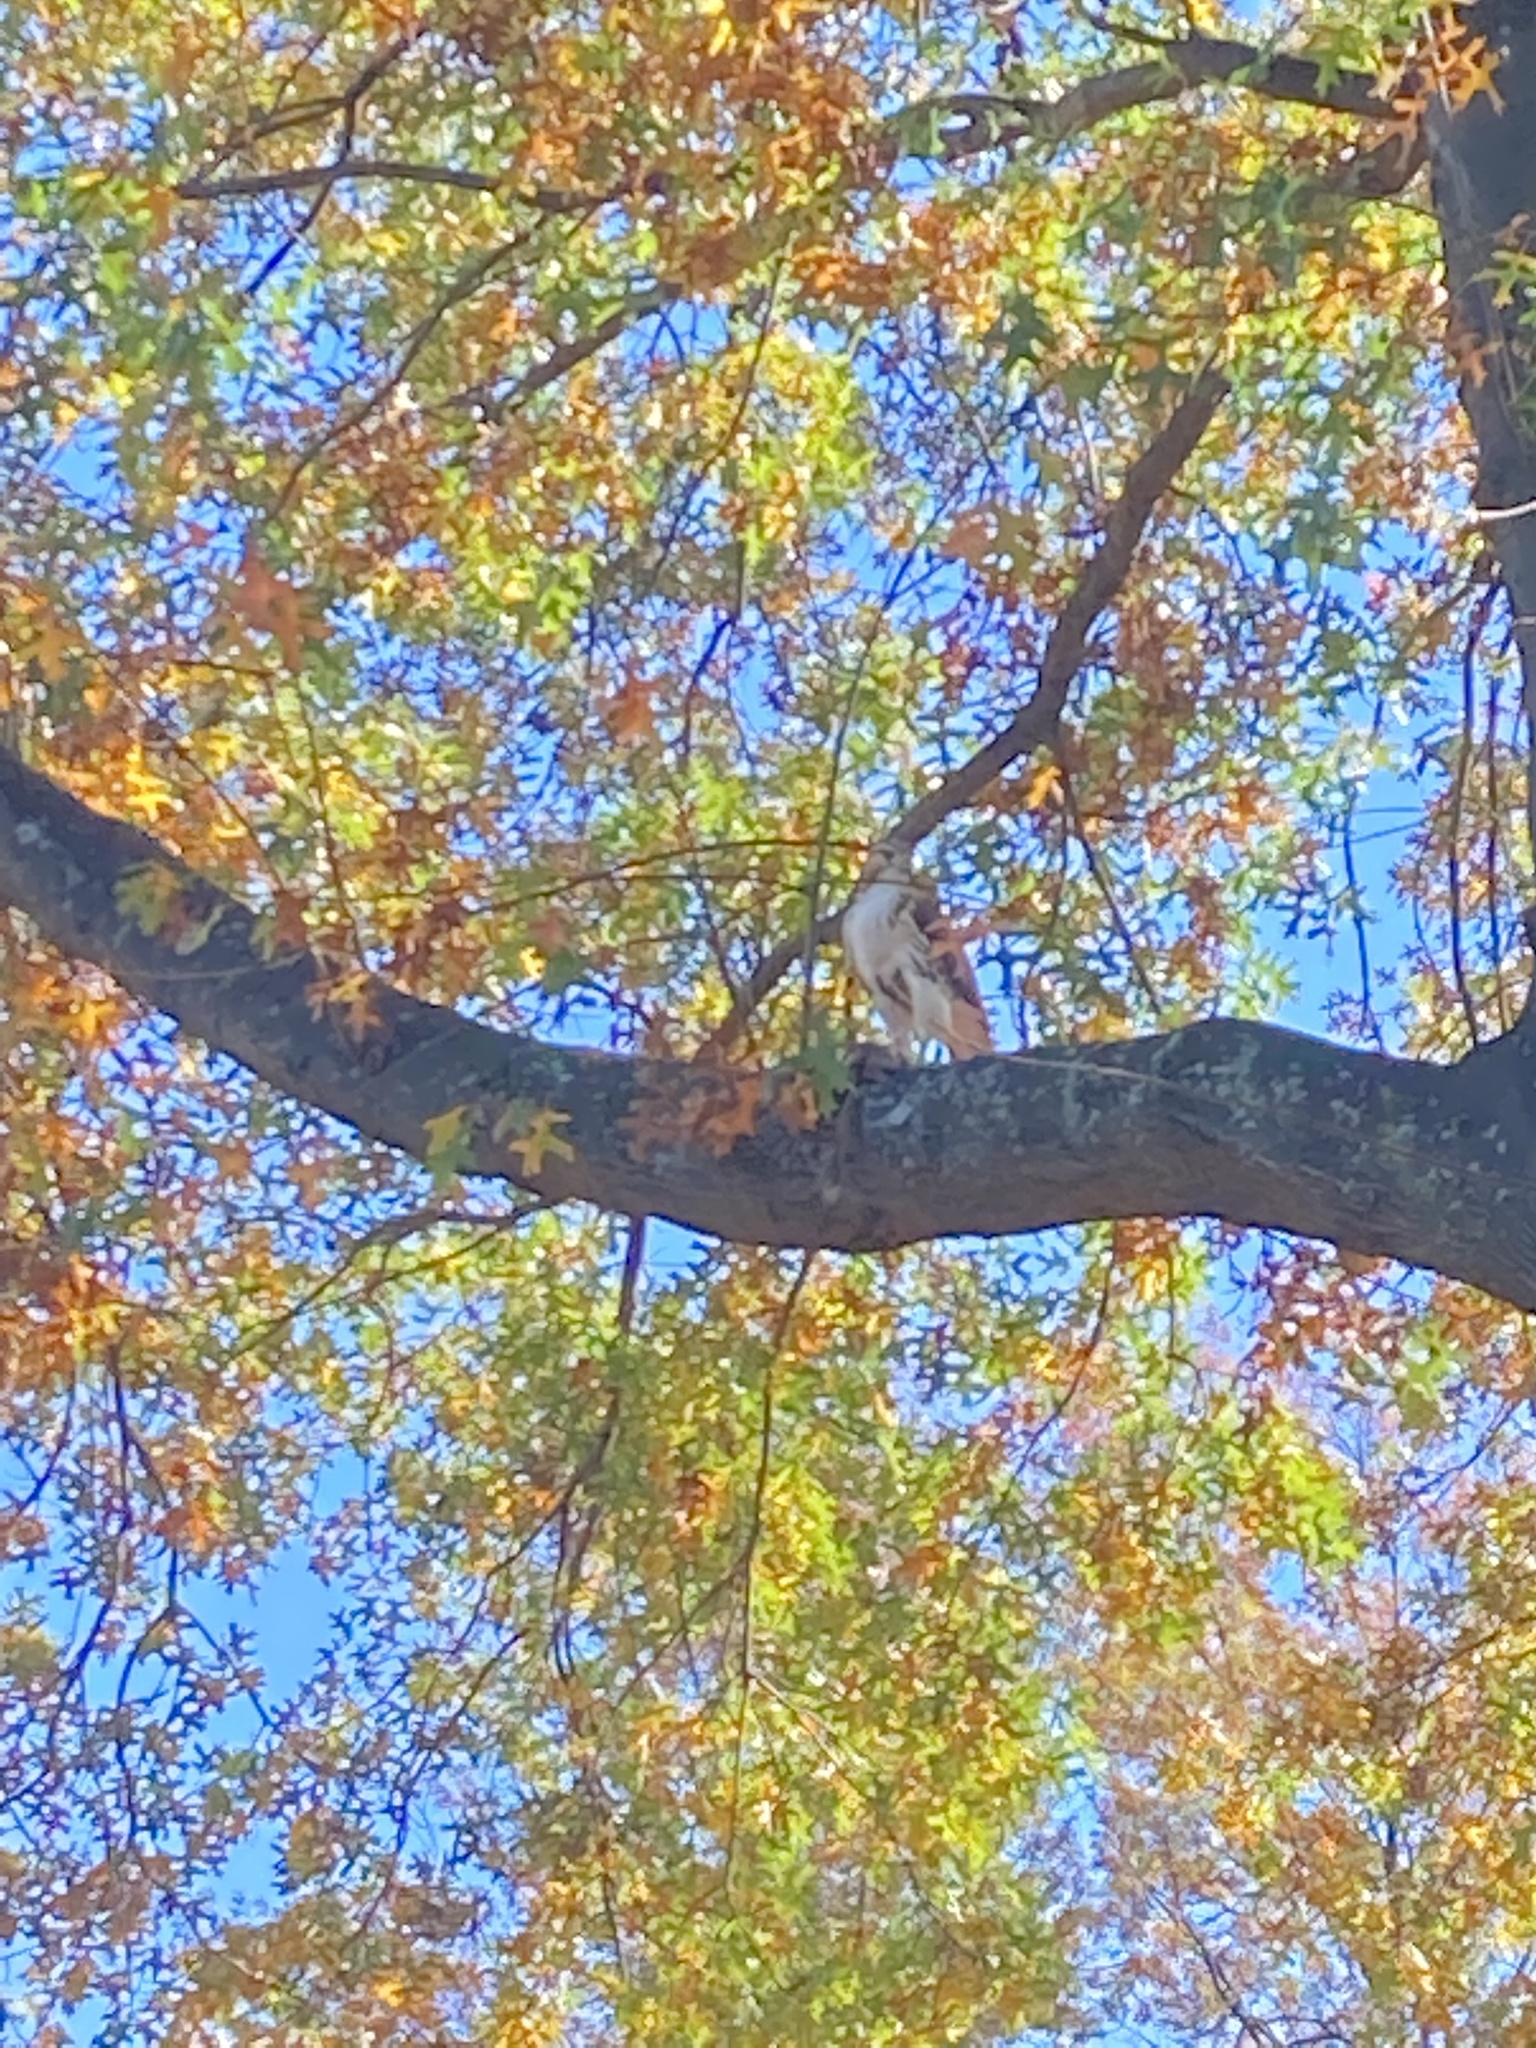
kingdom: Animalia
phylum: Chordata
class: Aves
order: Accipitriformes
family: Accipitridae
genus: Buteo
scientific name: Buteo jamaicensis
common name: Red-tailed hawk
